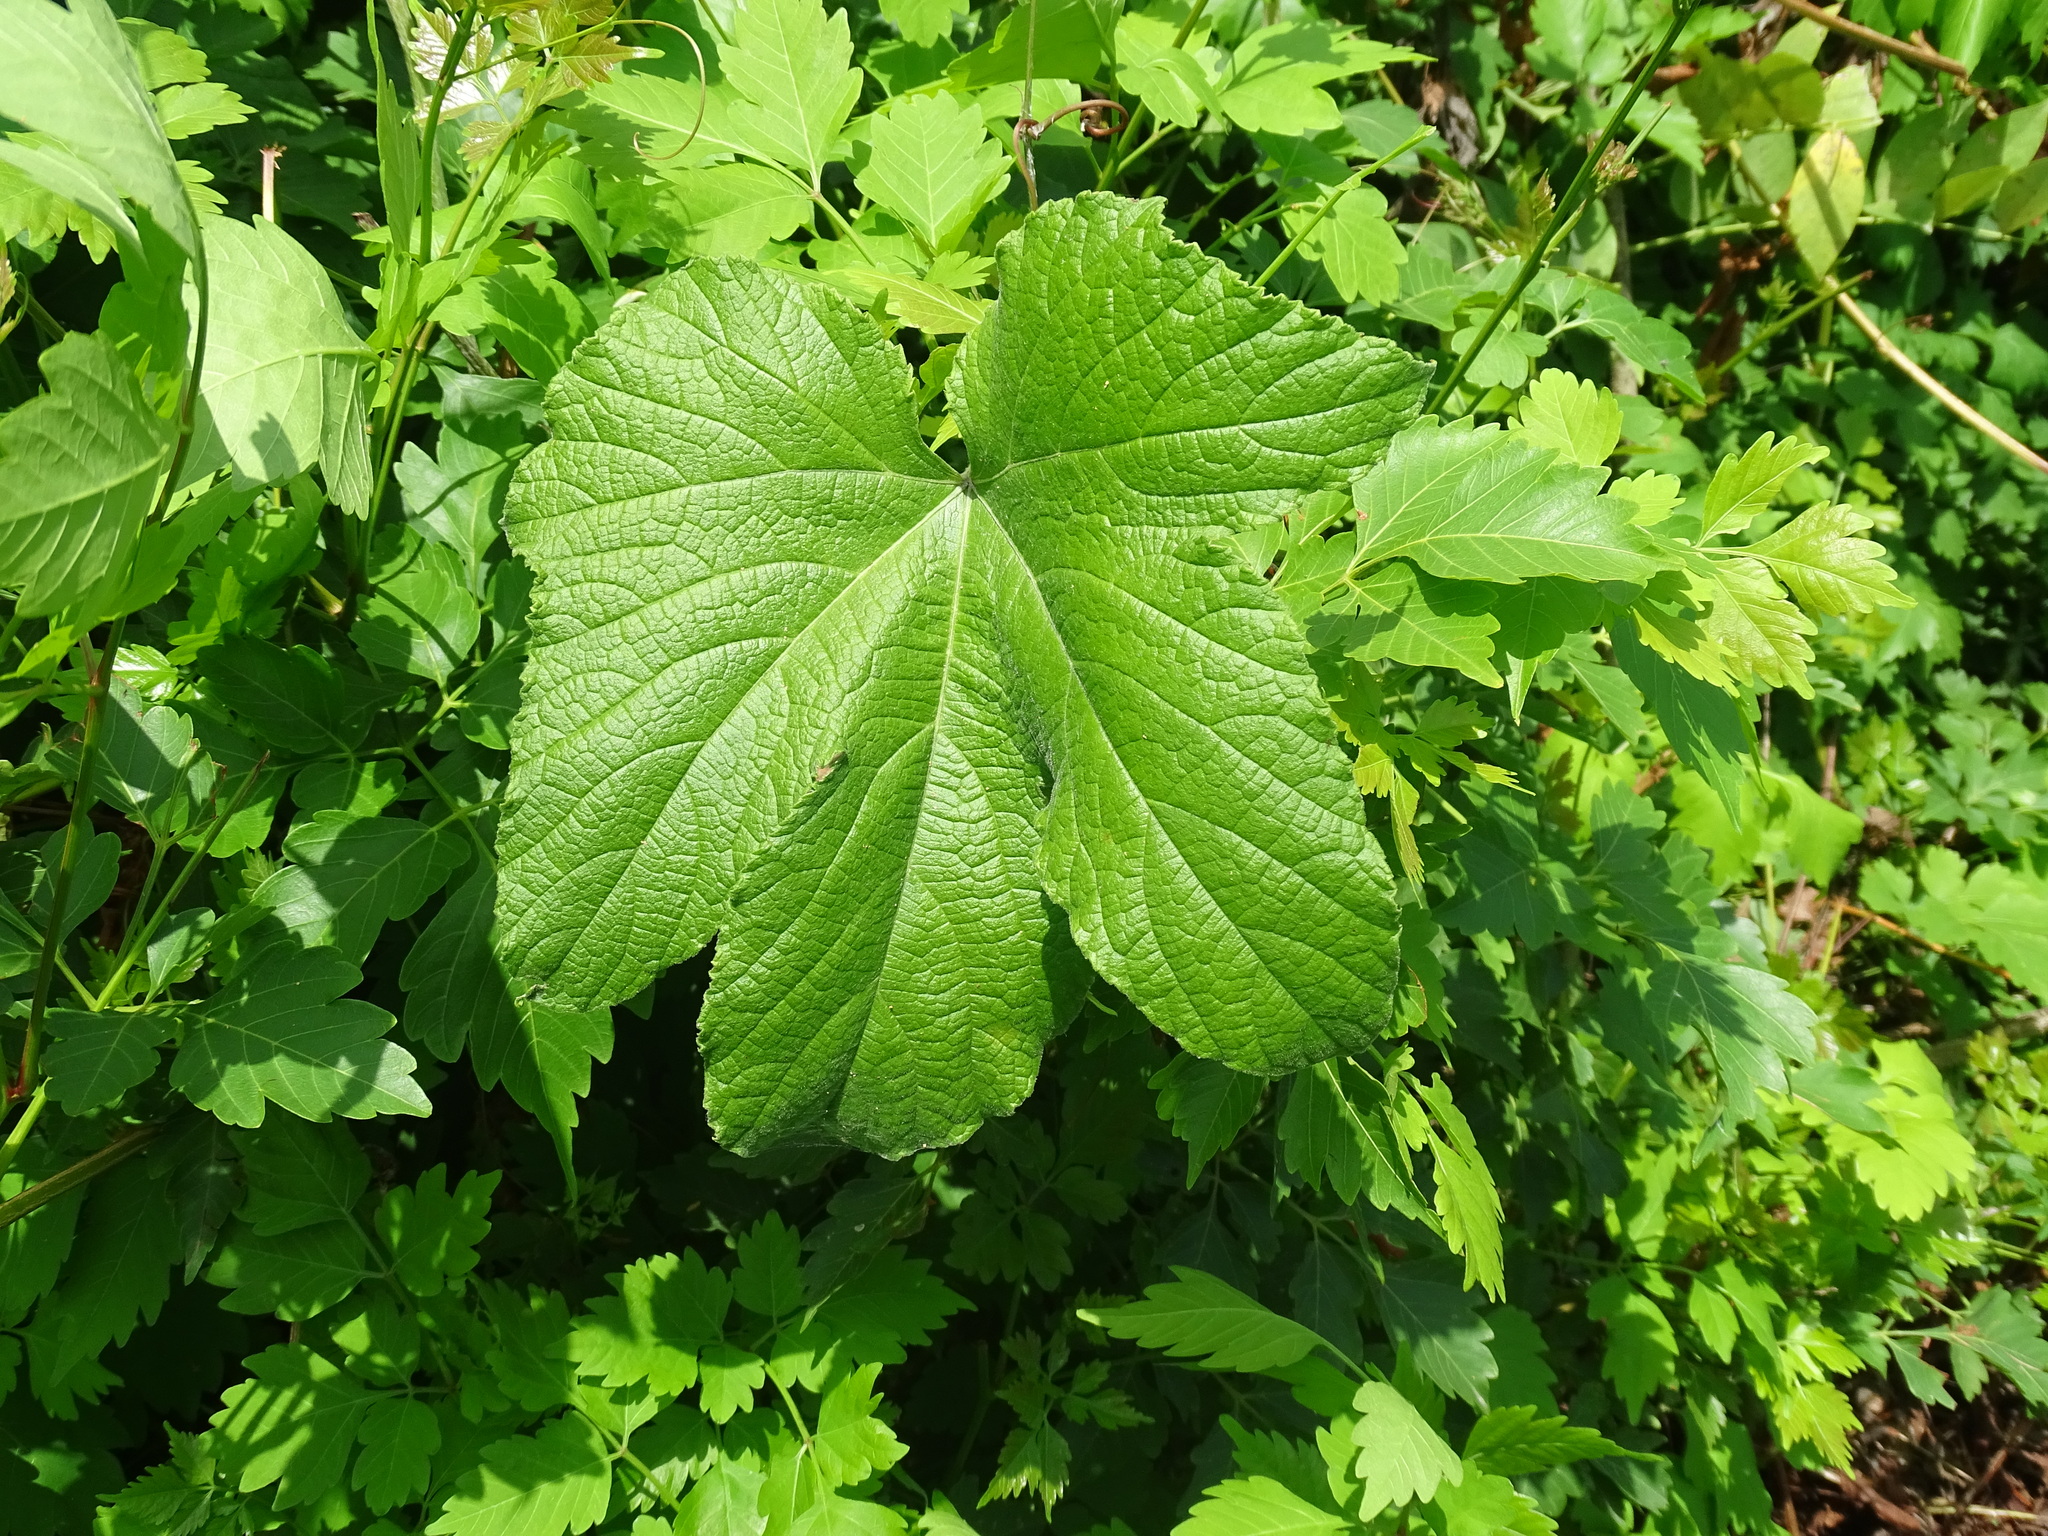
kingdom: Plantae
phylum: Tracheophyta
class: Magnoliopsida
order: Vitales
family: Vitaceae
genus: Ampelocissus
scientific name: Ampelocissus mesoamericana
